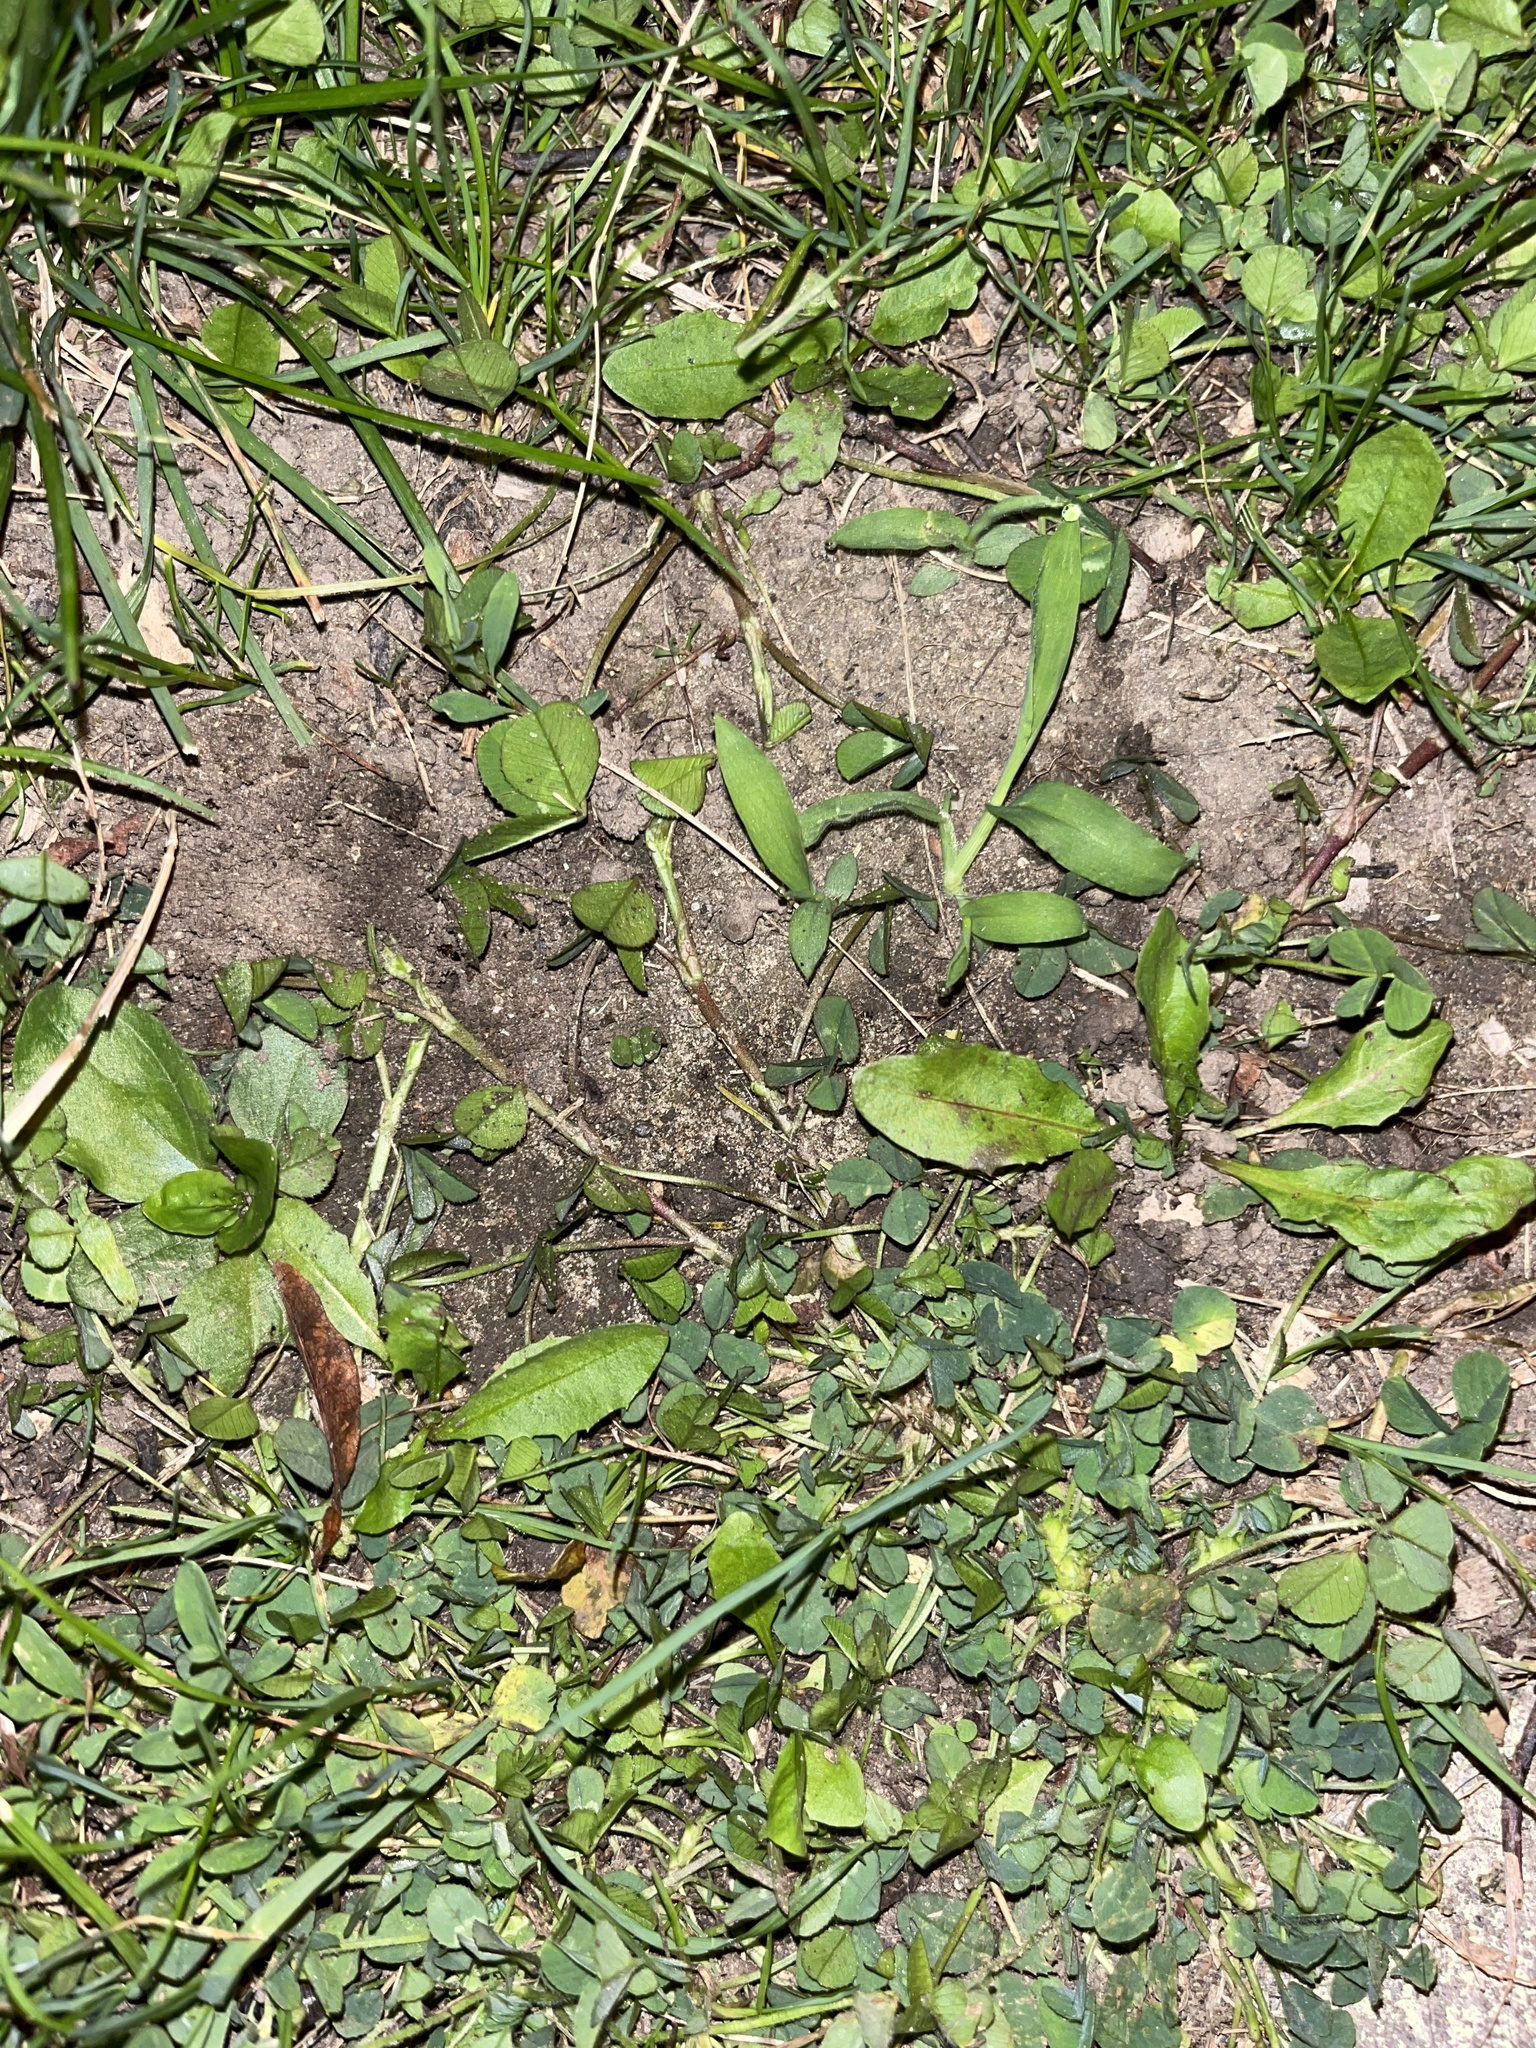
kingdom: Plantae
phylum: Tracheophyta
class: Magnoliopsida
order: Fabales
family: Fabaceae
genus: Trifolium
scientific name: Trifolium repens
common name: White clover
